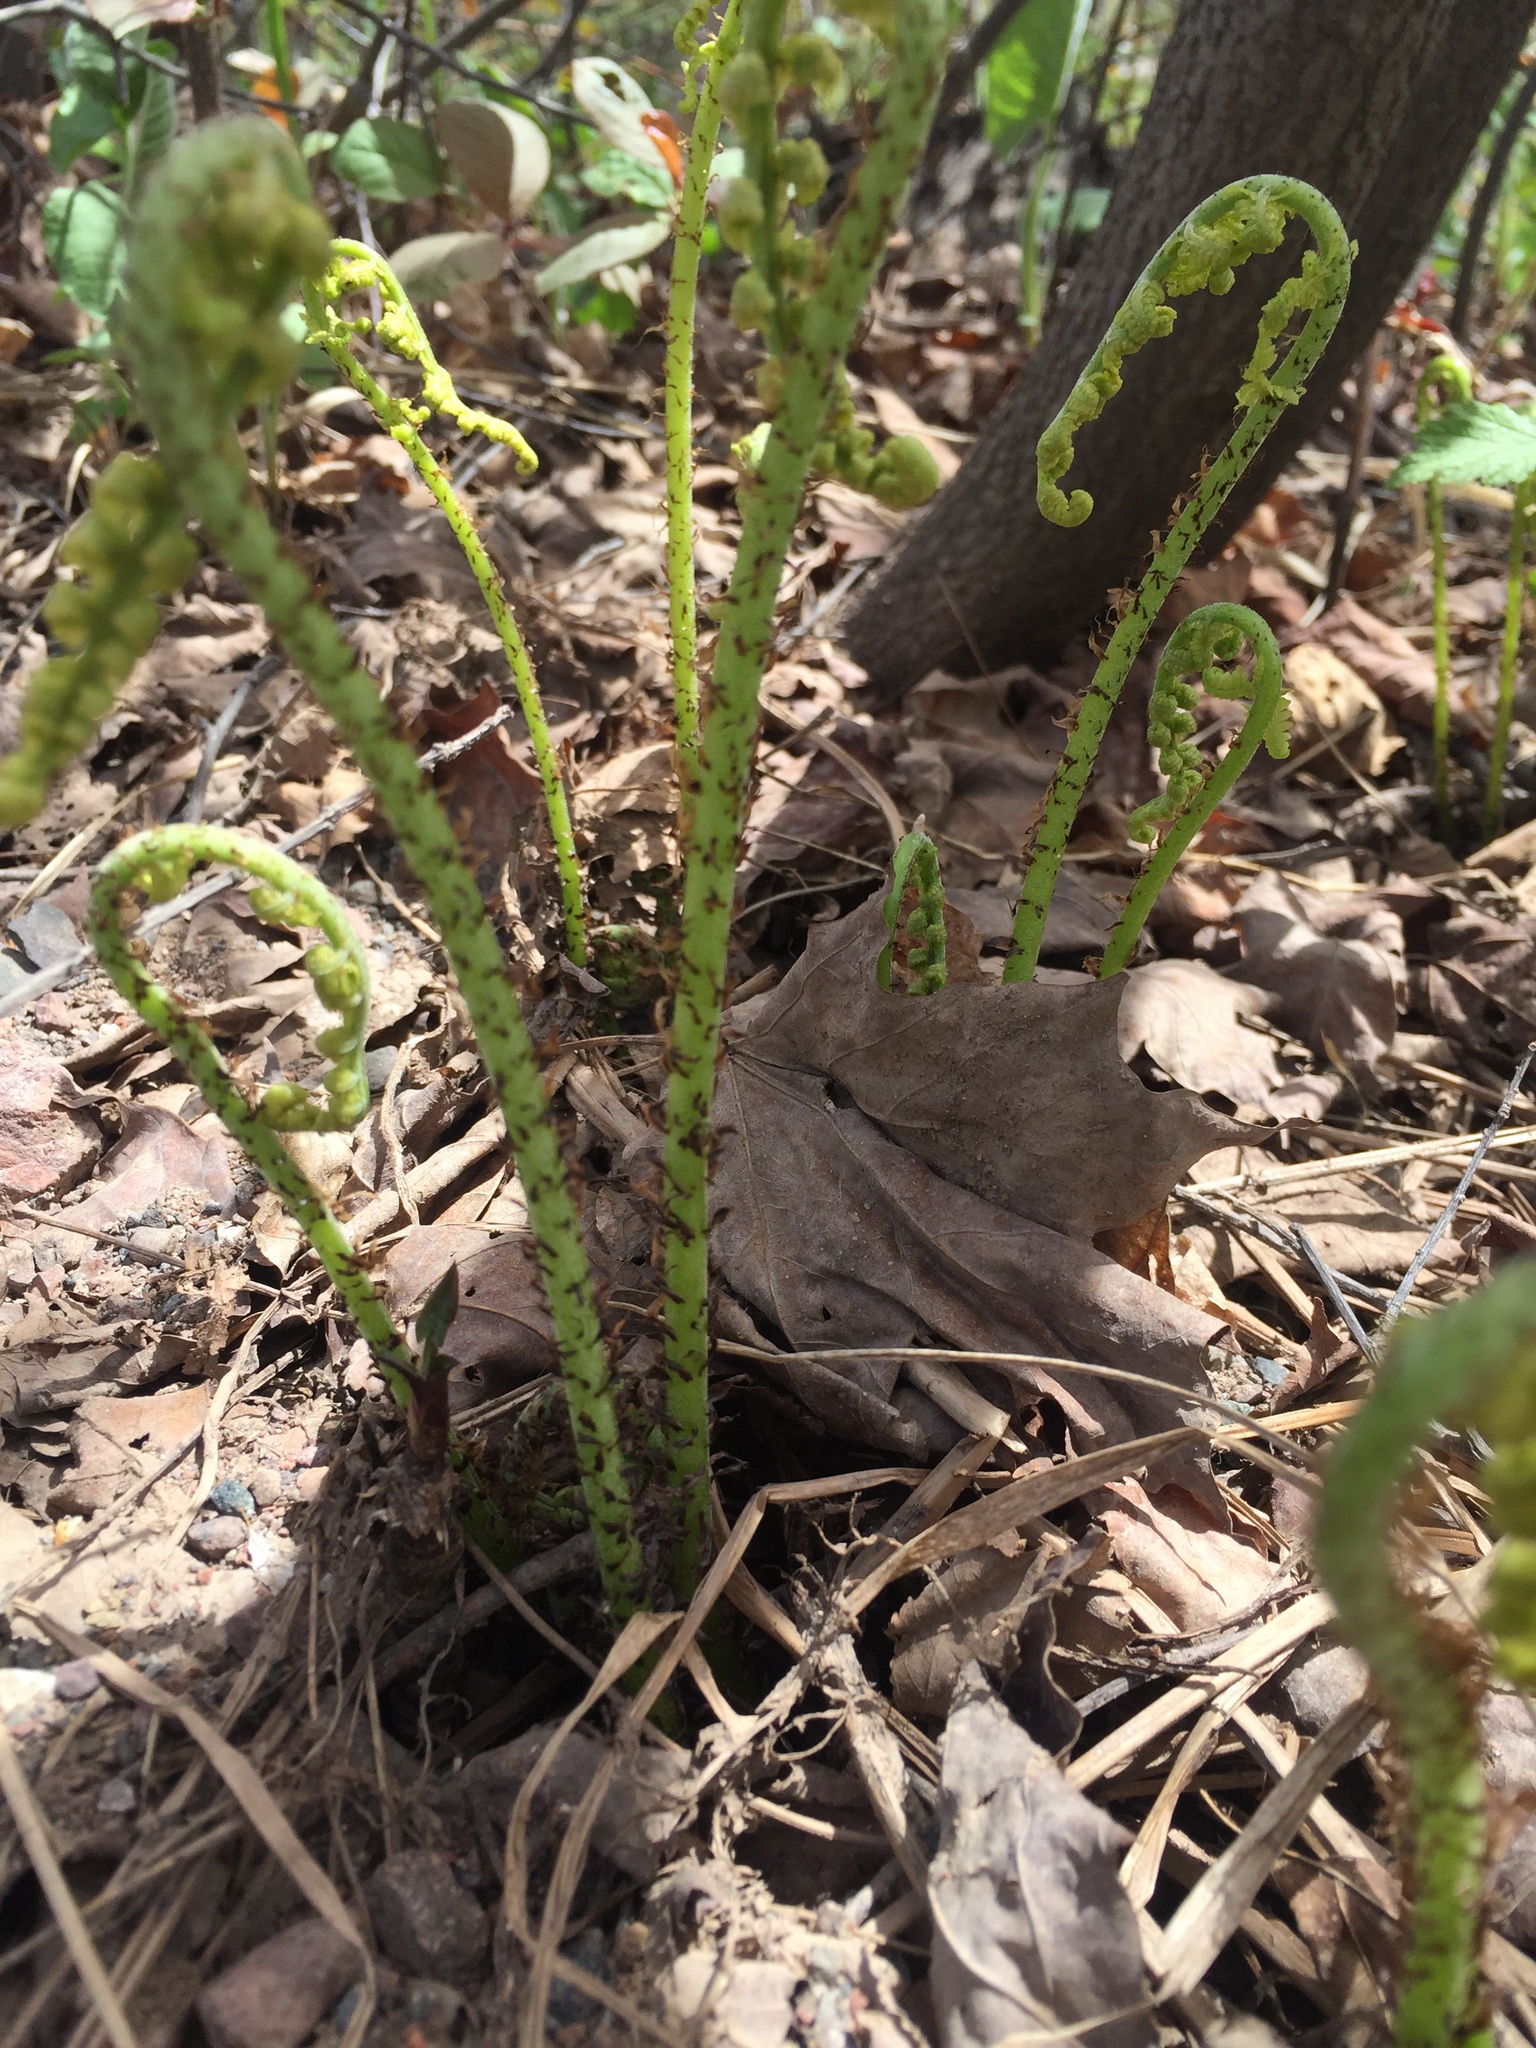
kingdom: Plantae
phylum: Tracheophyta
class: Polypodiopsida
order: Polypodiales
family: Athyriaceae
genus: Athyrium
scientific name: Athyrium angustum
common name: Northern lady fern
